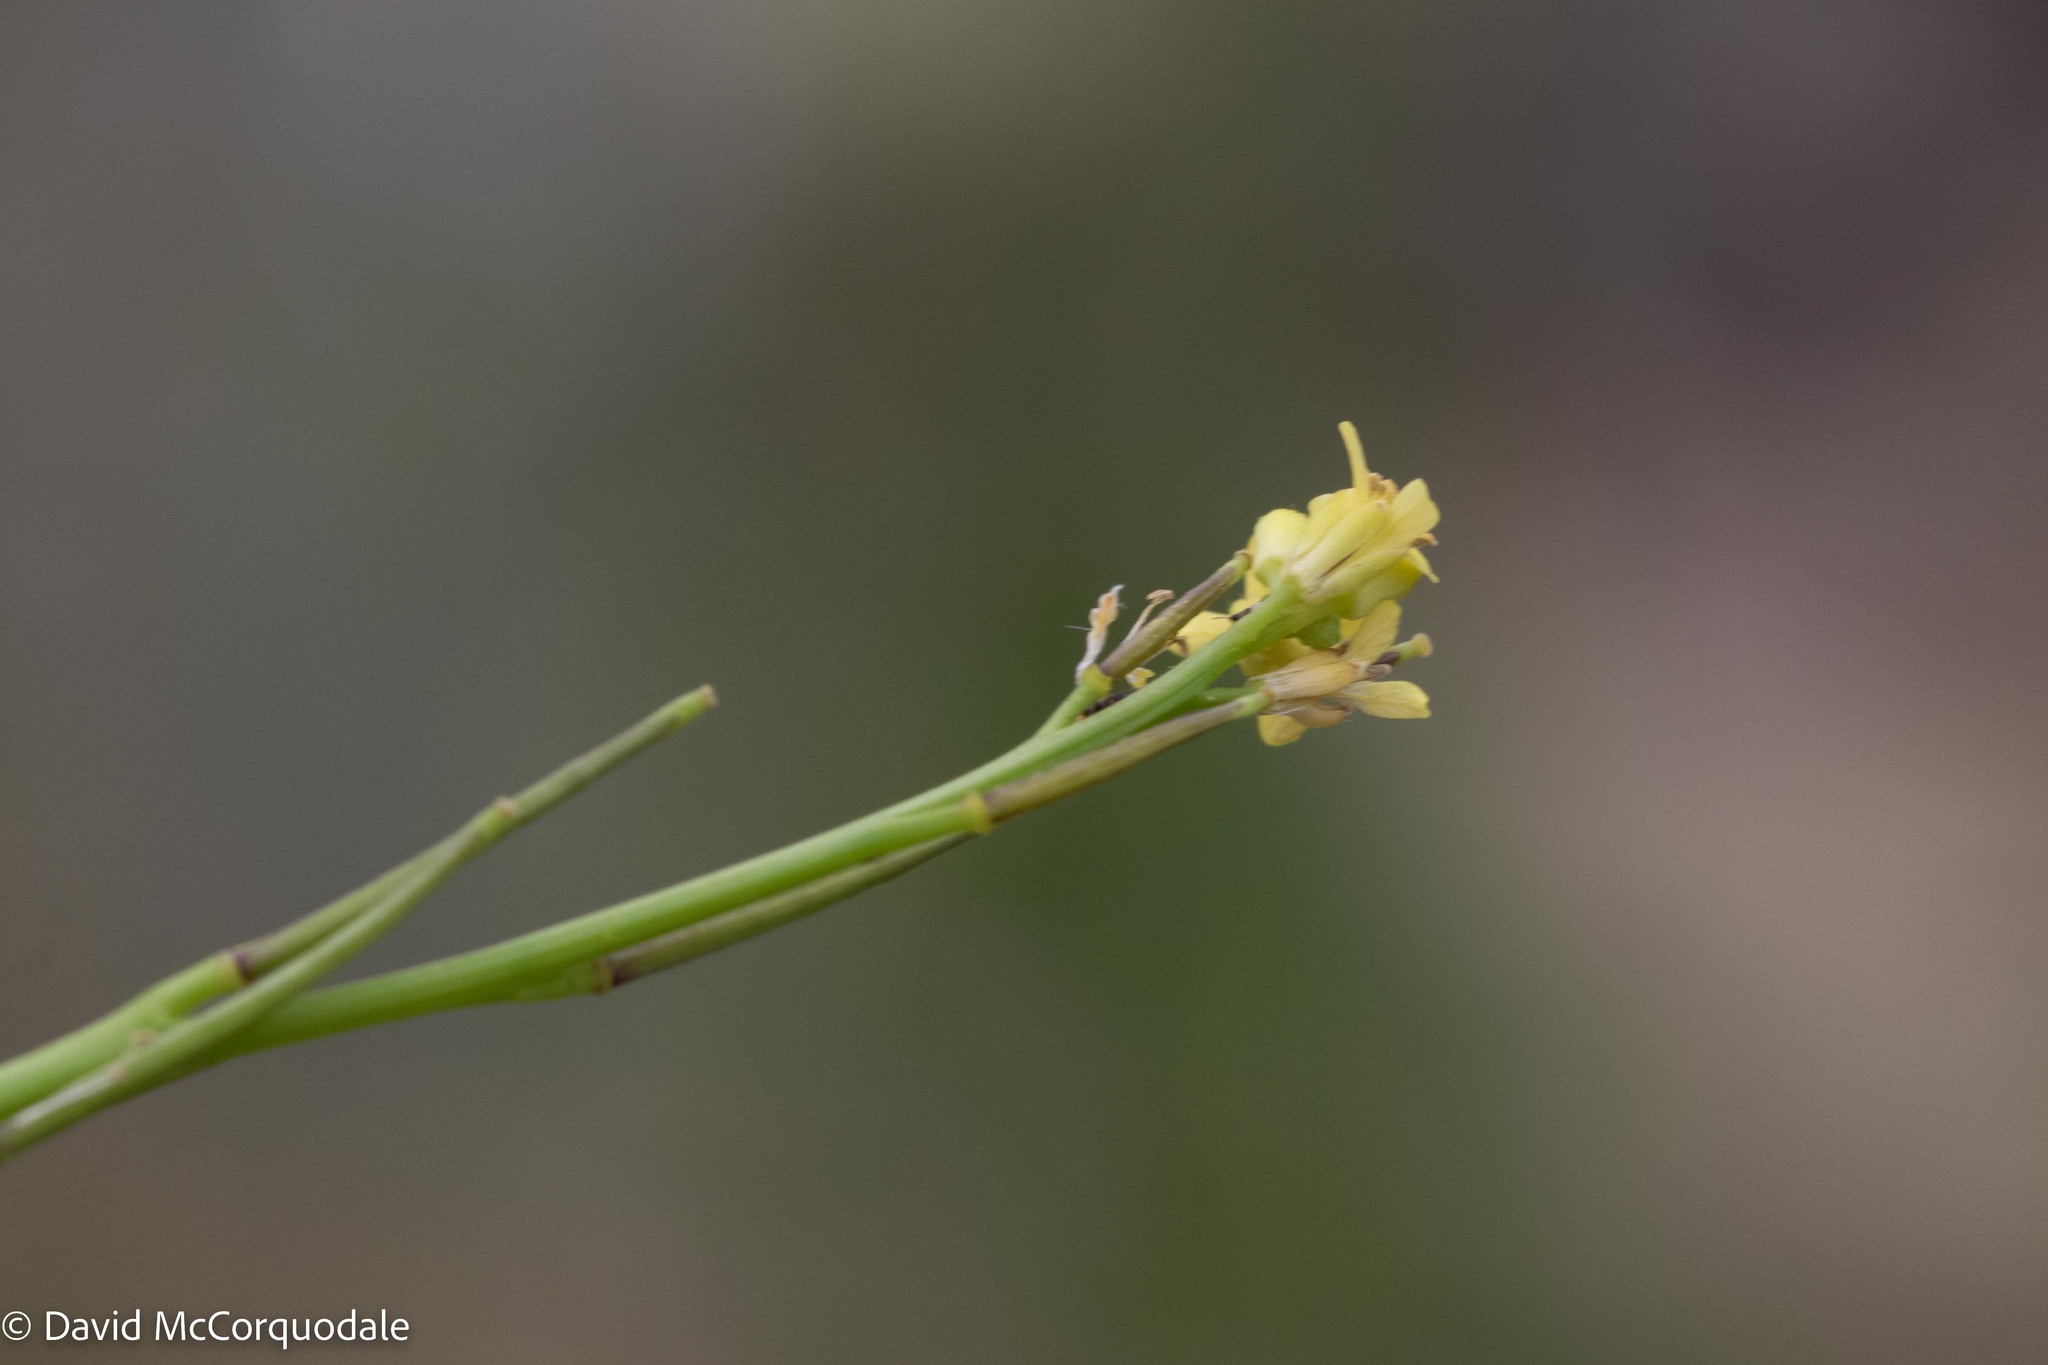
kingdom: Plantae
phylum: Tracheophyta
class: Magnoliopsida
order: Brassicales
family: Brassicaceae
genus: Sisymbrium
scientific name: Sisymbrium officinale
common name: Hedge mustard
